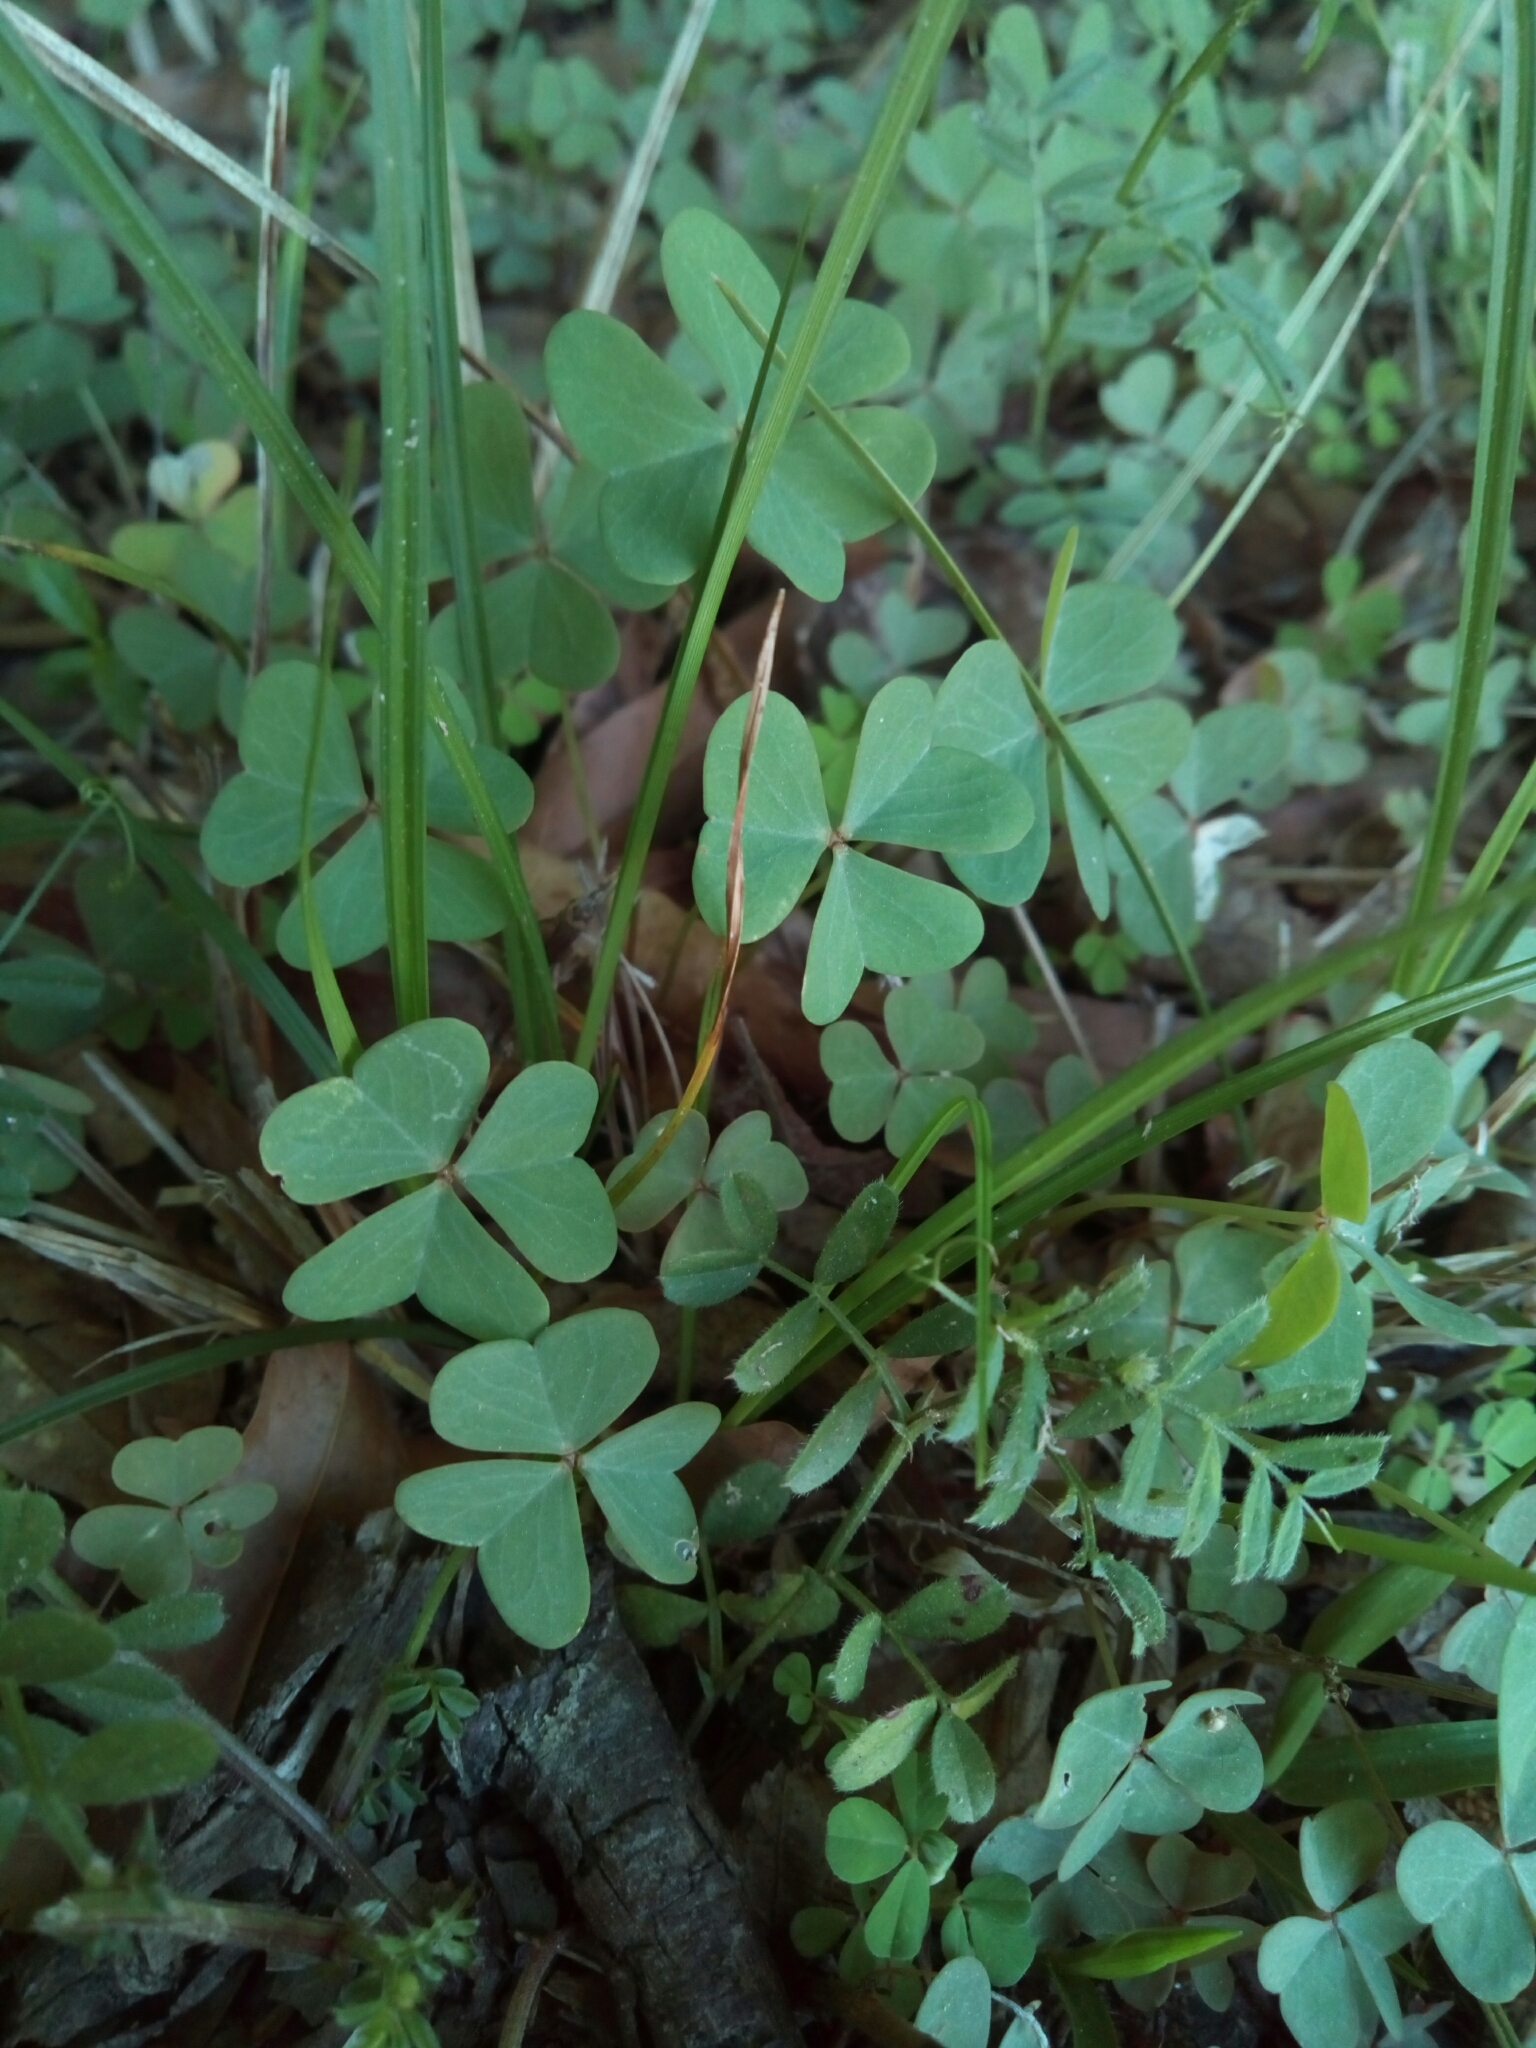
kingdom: Plantae
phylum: Tracheophyta
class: Magnoliopsida
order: Oxalidales
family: Oxalidaceae
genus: Oxalis
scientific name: Oxalis violacea
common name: Violet wood-sorrel
